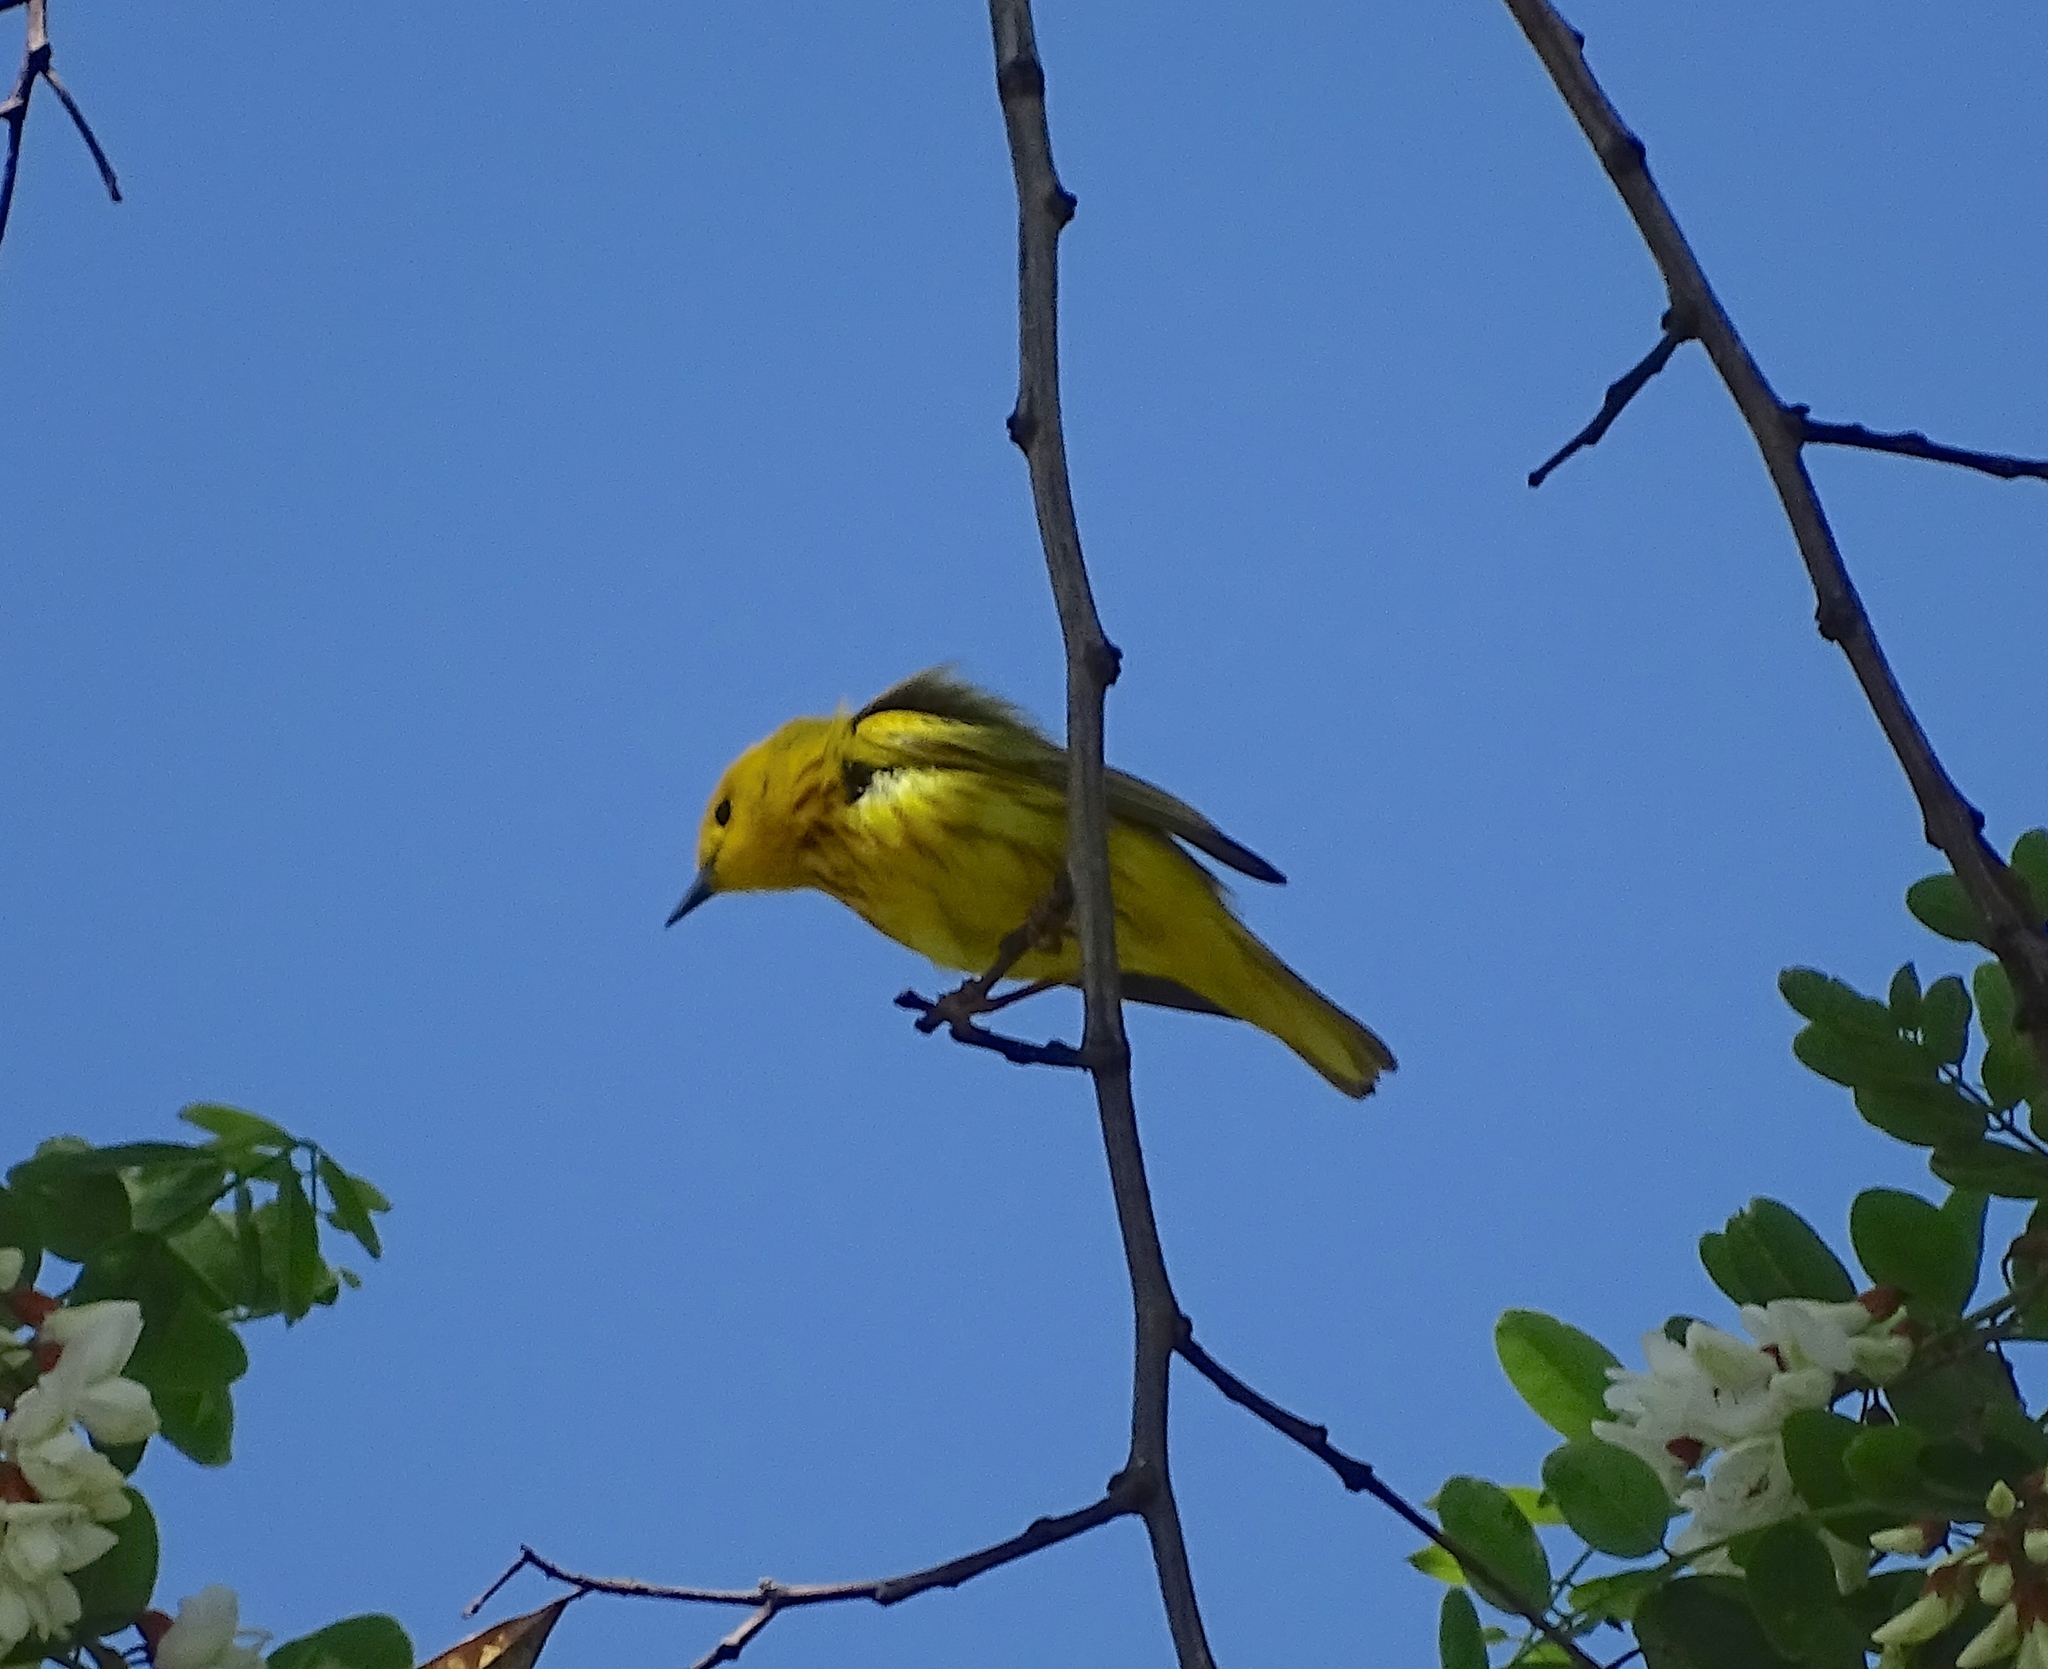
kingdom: Animalia
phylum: Chordata
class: Aves
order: Passeriformes
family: Parulidae
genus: Setophaga
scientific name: Setophaga petechia
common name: Yellow warbler
